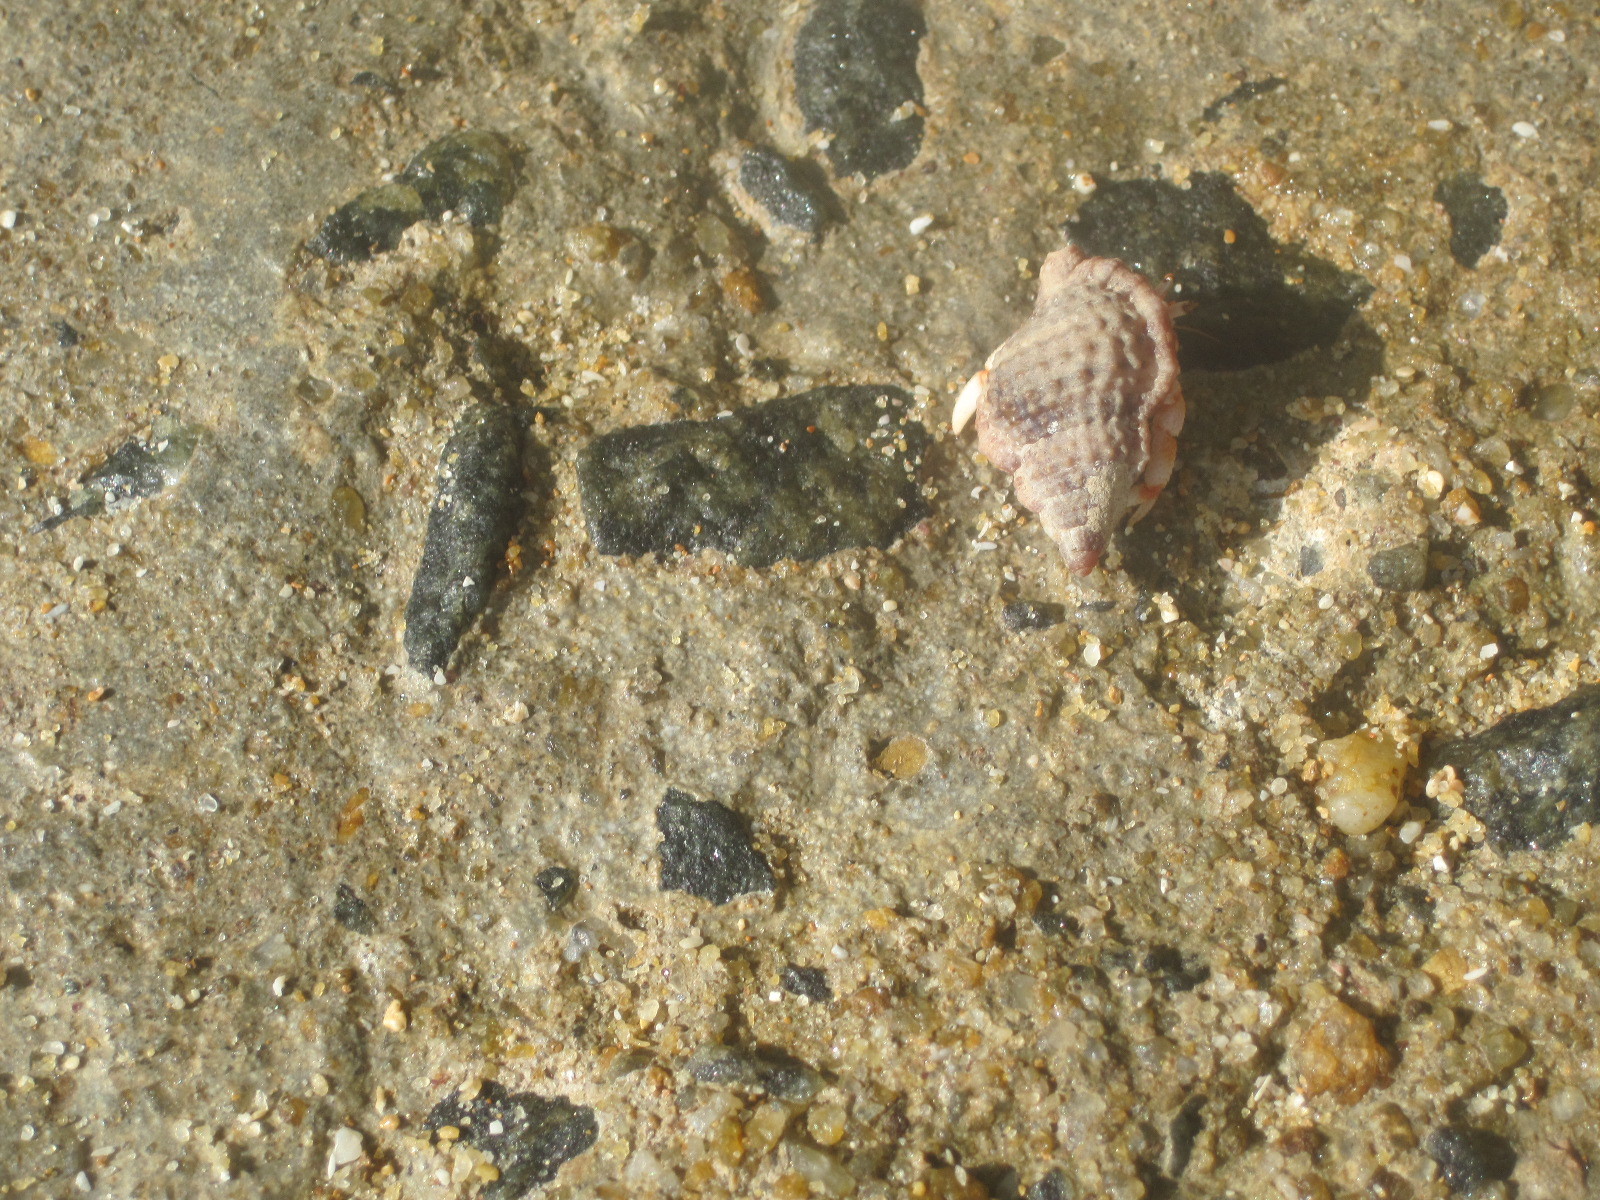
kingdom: Animalia
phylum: Arthropoda
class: Malacostraca
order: Decapoda
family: Coenobitidae
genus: Coenobita
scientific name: Coenobita perlatus
